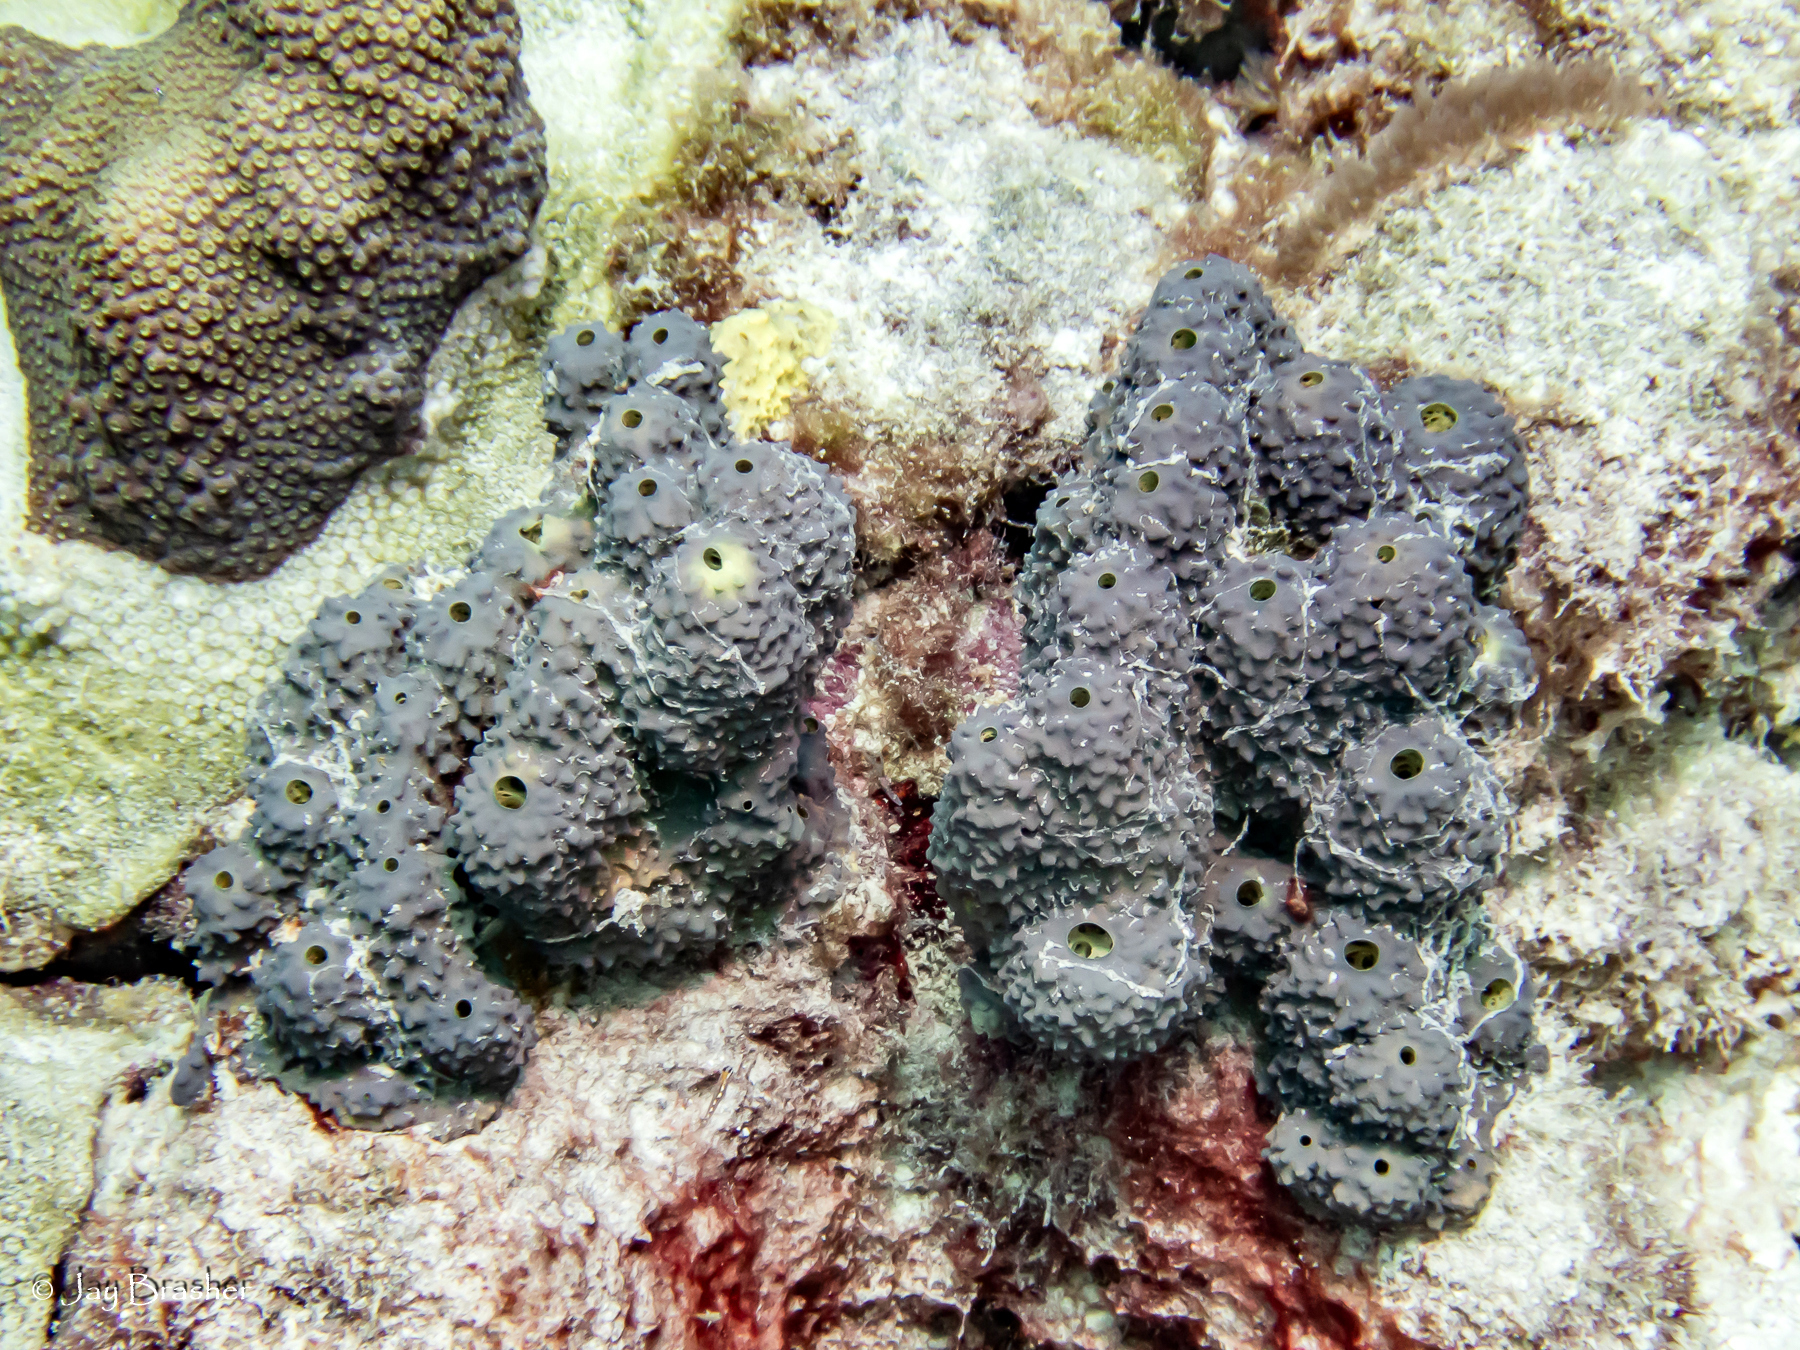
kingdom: Animalia
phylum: Porifera
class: Demospongiae
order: Verongiida
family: Aplysinidae
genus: Aiolochroia
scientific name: Aiolochroia crassa
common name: Branching tube sponge
